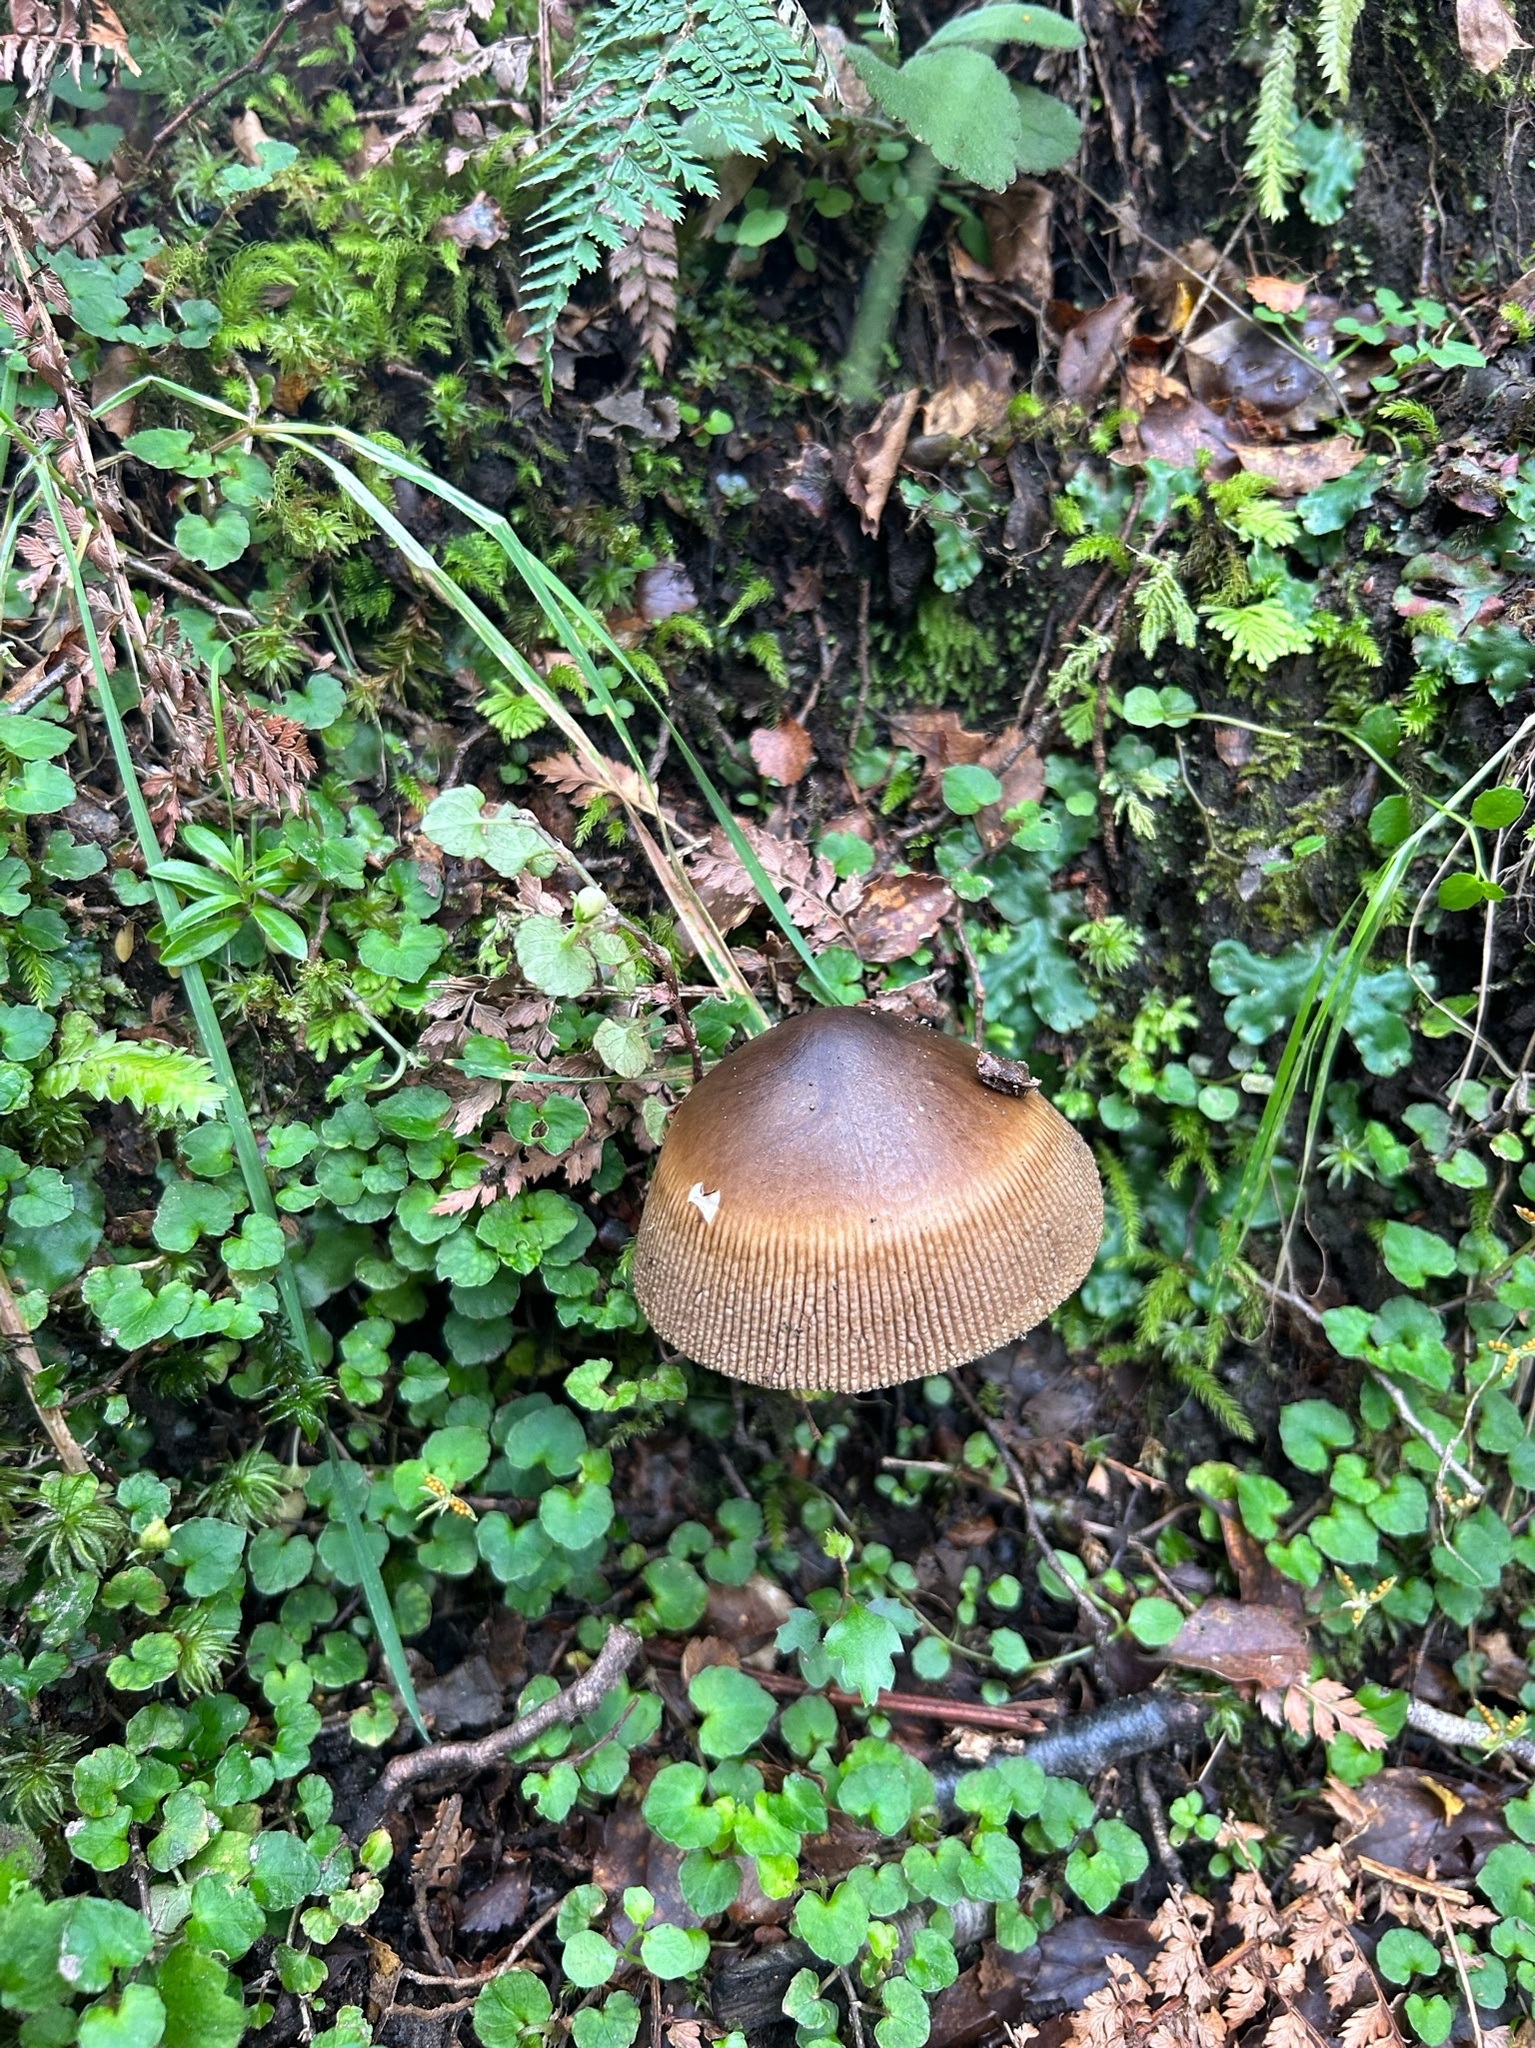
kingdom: Fungi
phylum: Basidiomycota
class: Agaricomycetes
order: Agaricales
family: Amanitaceae
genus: Amanita
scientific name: Amanita pekeoides
